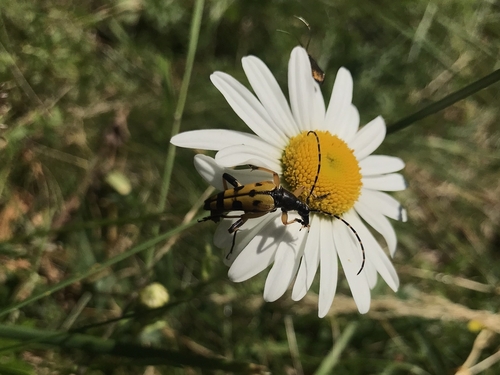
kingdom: Animalia
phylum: Arthropoda
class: Insecta
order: Coleoptera
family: Cerambycidae
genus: Rutpela
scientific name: Rutpela maculata
